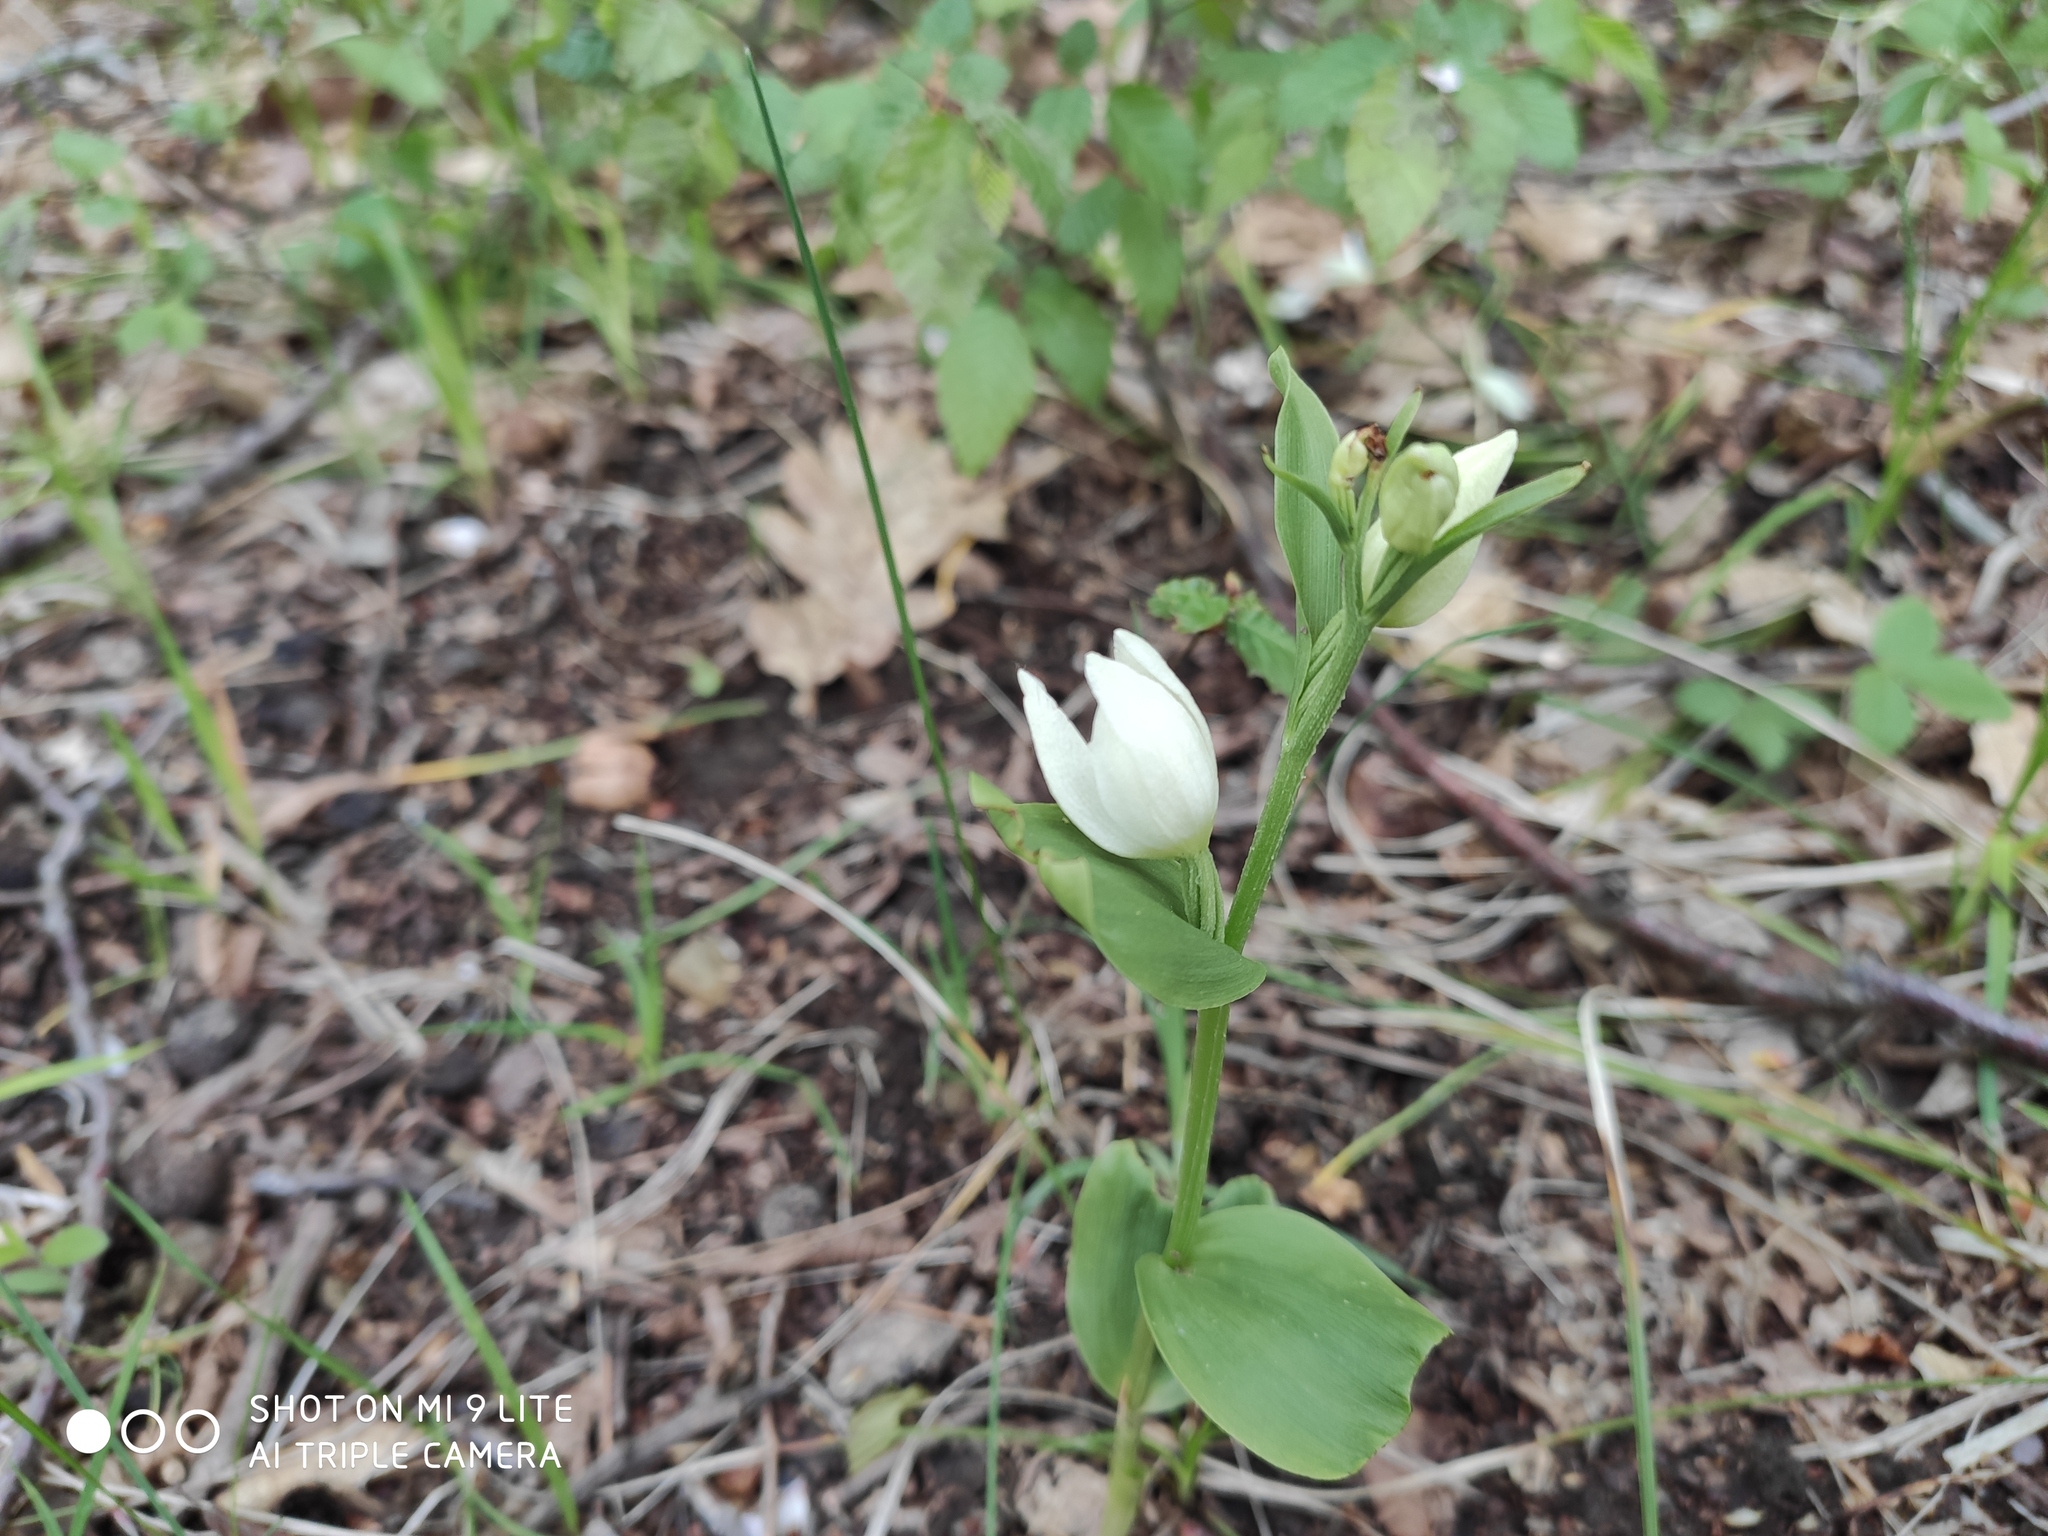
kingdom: Plantae
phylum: Tracheophyta
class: Liliopsida
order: Asparagales
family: Orchidaceae
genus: Cephalanthera
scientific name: Cephalanthera damasonium
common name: White helleborine
